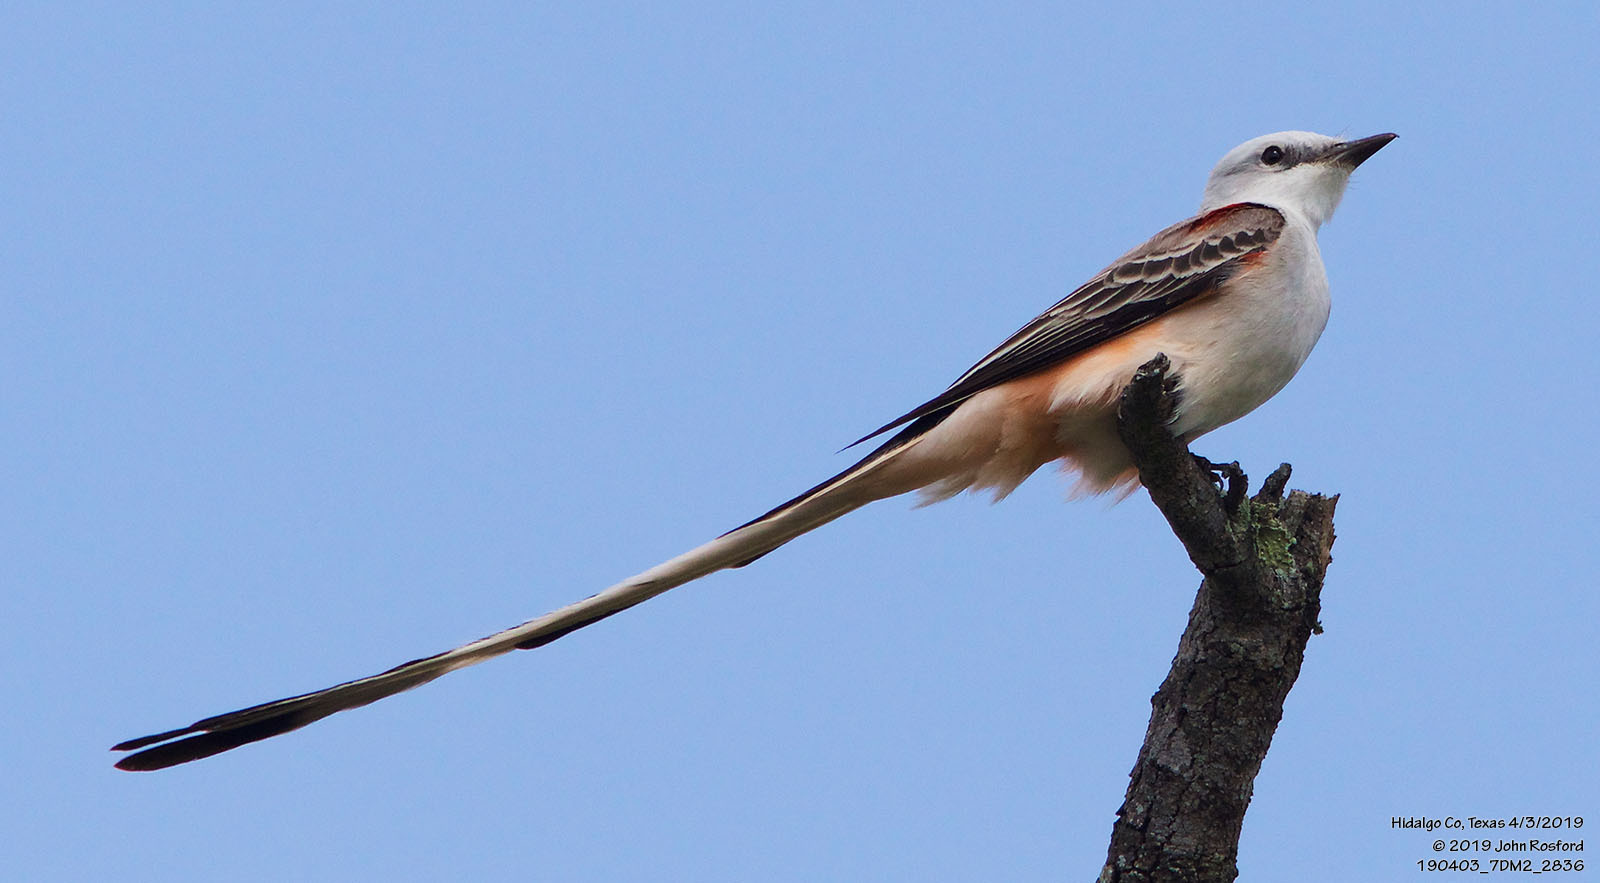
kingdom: Animalia
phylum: Chordata
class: Aves
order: Passeriformes
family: Tyrannidae
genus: Tyrannus
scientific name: Tyrannus forficatus
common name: Scissor-tailed flycatcher
